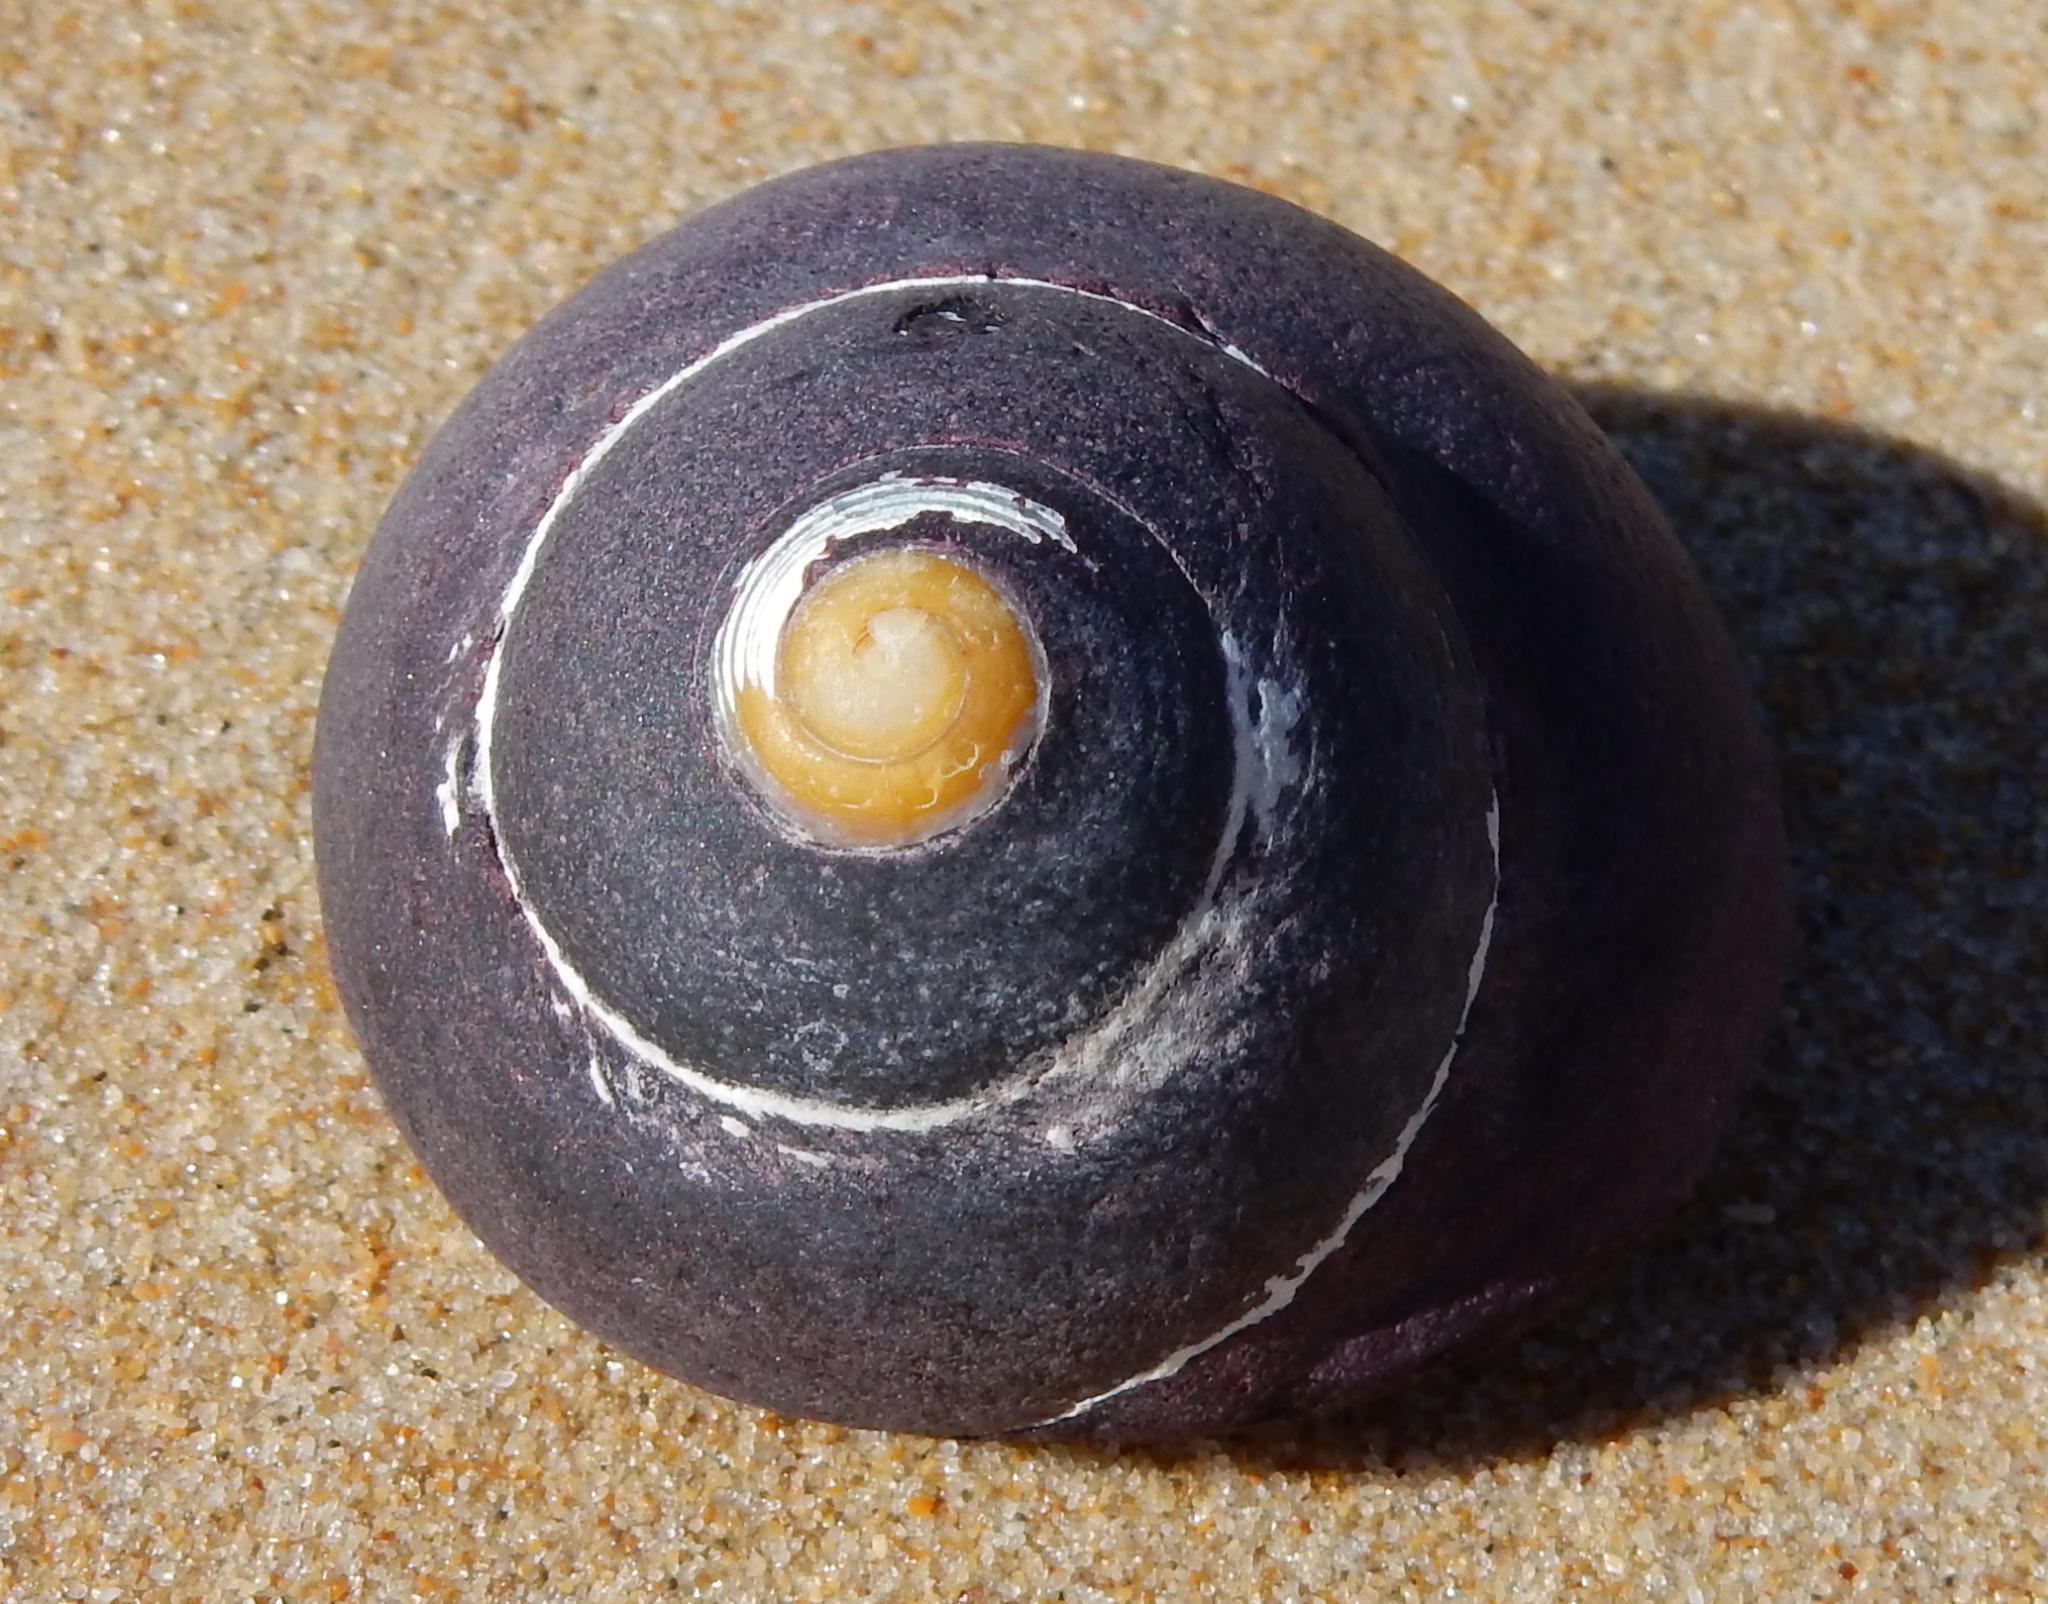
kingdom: Animalia
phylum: Mollusca
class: Gastropoda
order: Trochida
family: Trochidae
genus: Oxystele
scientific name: Oxystele sinensis
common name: Pink-lipped topshell
